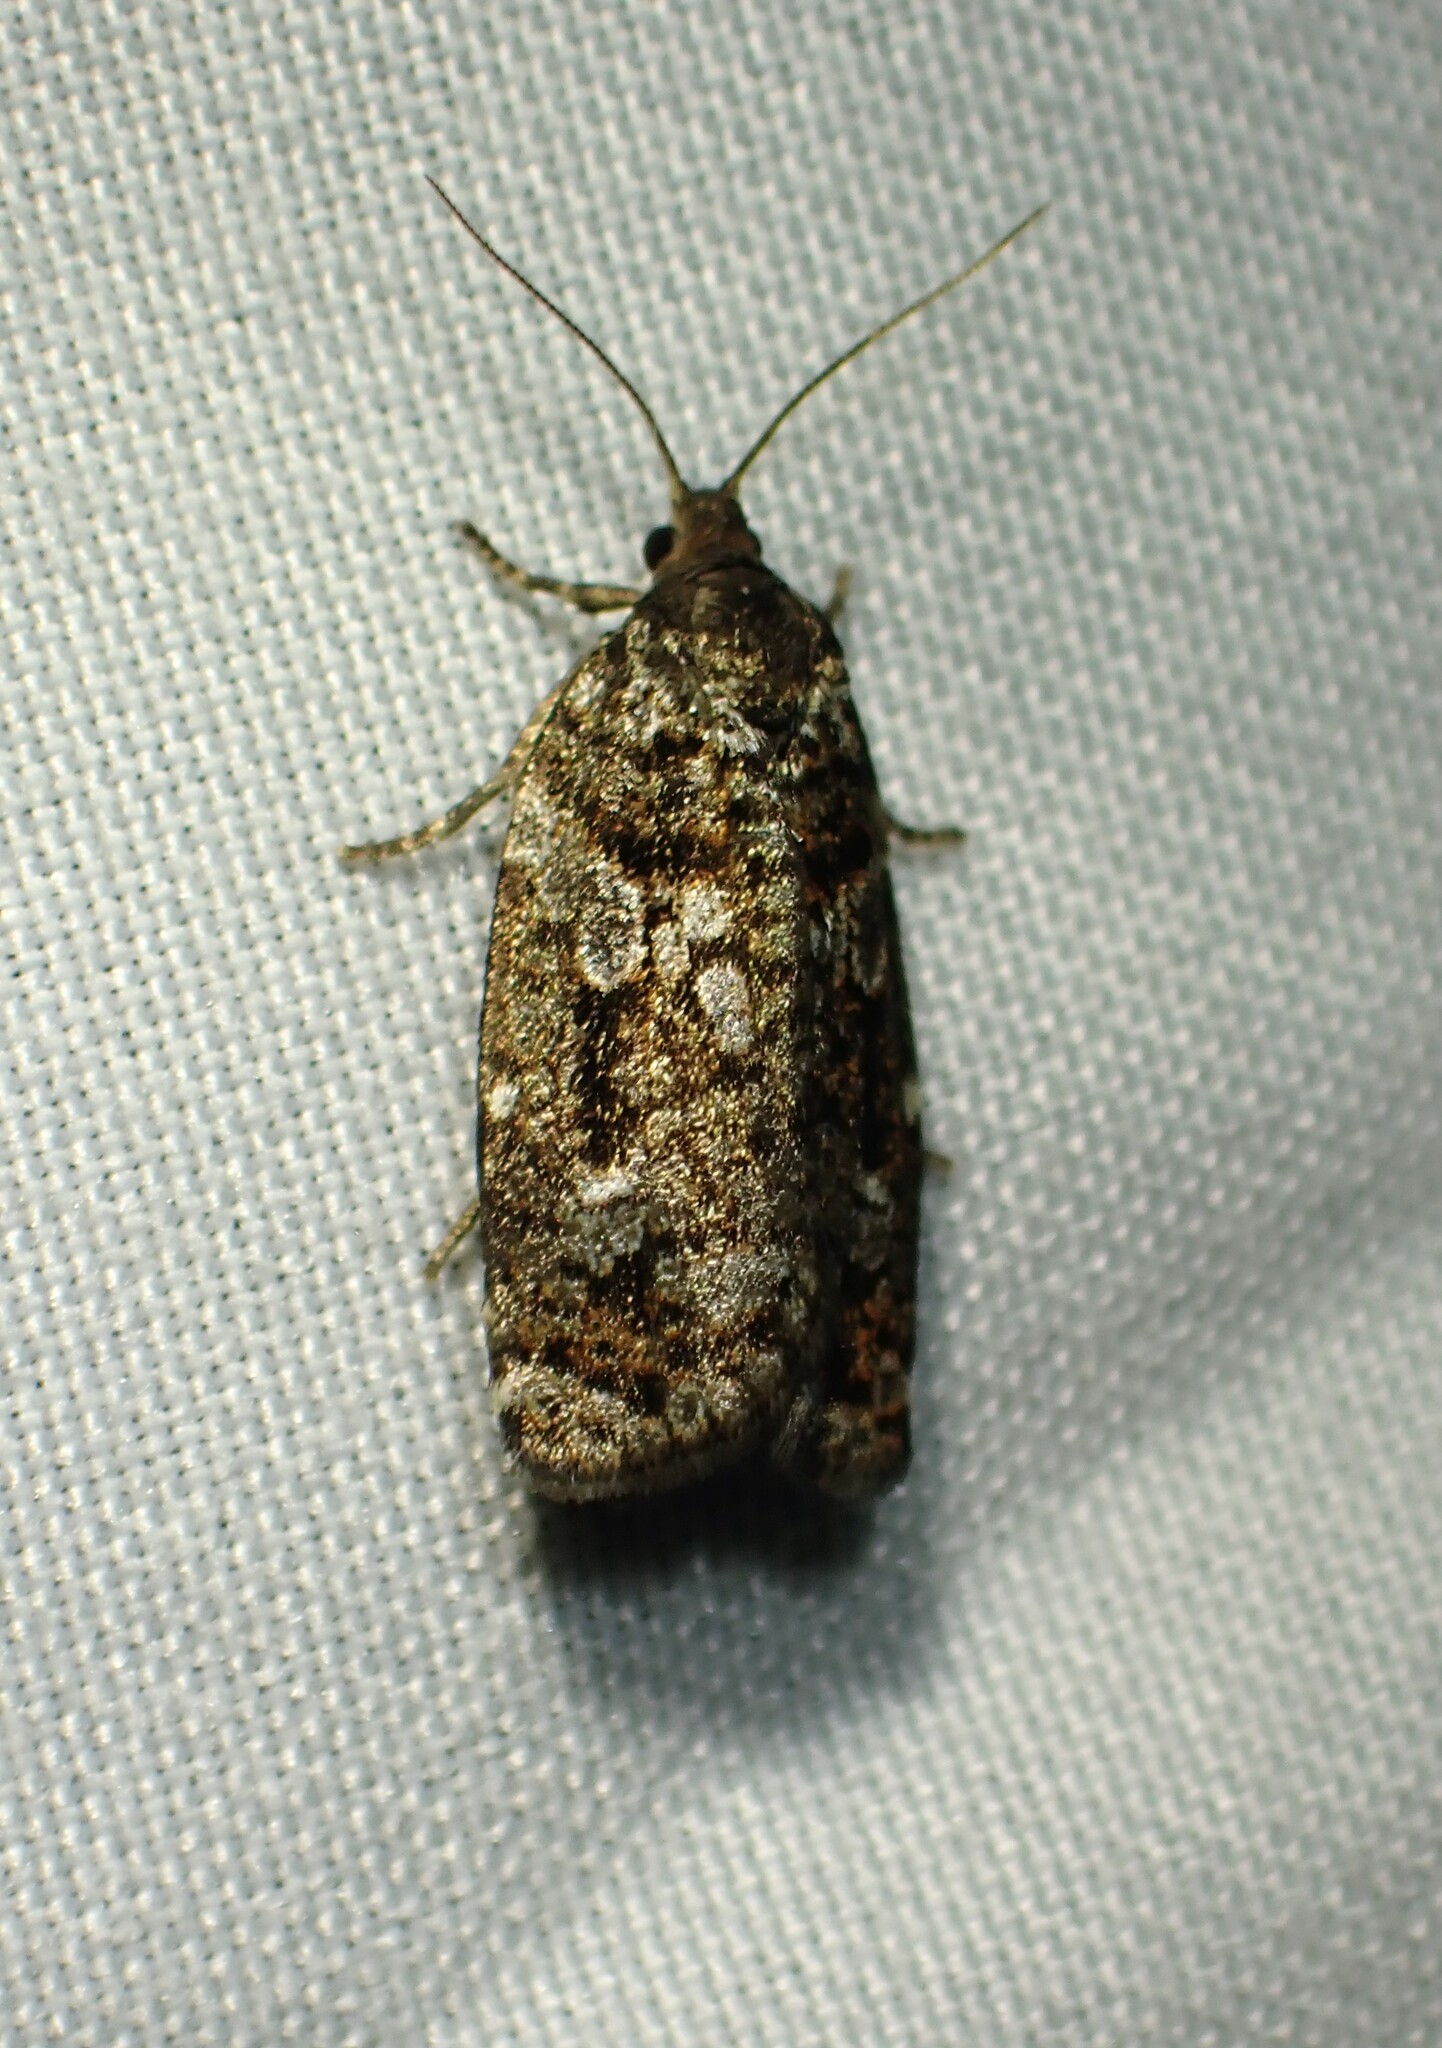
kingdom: Animalia
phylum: Arthropoda
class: Insecta
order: Lepidoptera
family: Tortricidae
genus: Choristoneura
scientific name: Choristoneura fumiferana
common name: Spruce budworm
